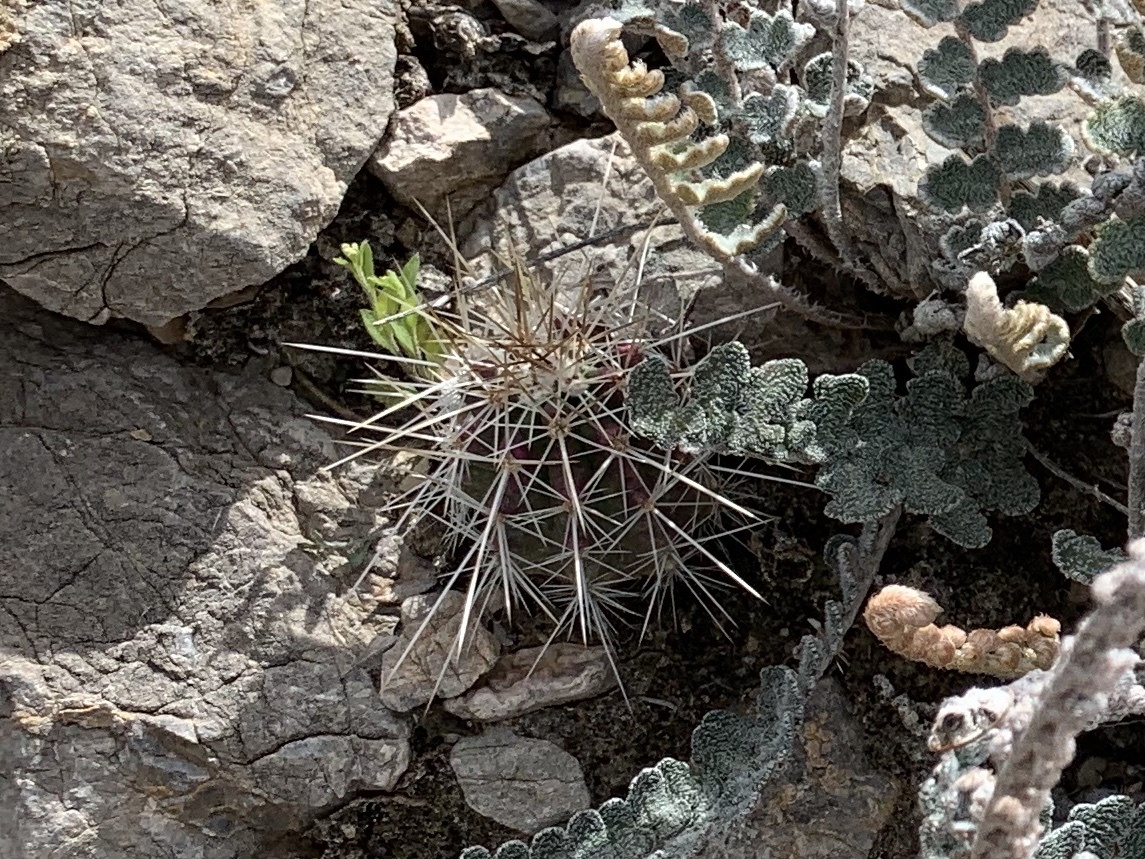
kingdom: Plantae
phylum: Tracheophyta
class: Magnoliopsida
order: Caryophyllales
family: Cactaceae
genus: Echinocereus
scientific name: Echinocereus stramineus
